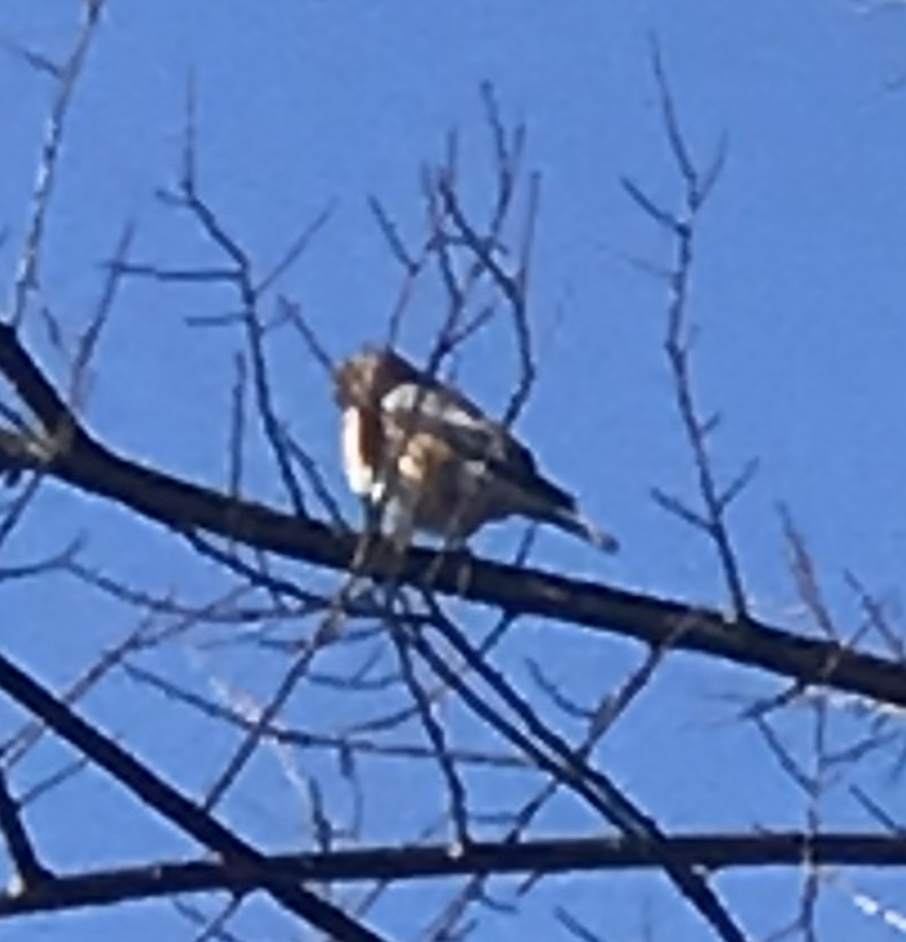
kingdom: Animalia
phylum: Chordata
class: Aves
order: Passeriformes
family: Turdidae
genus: Sialia
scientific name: Sialia sialis
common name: Eastern bluebird
